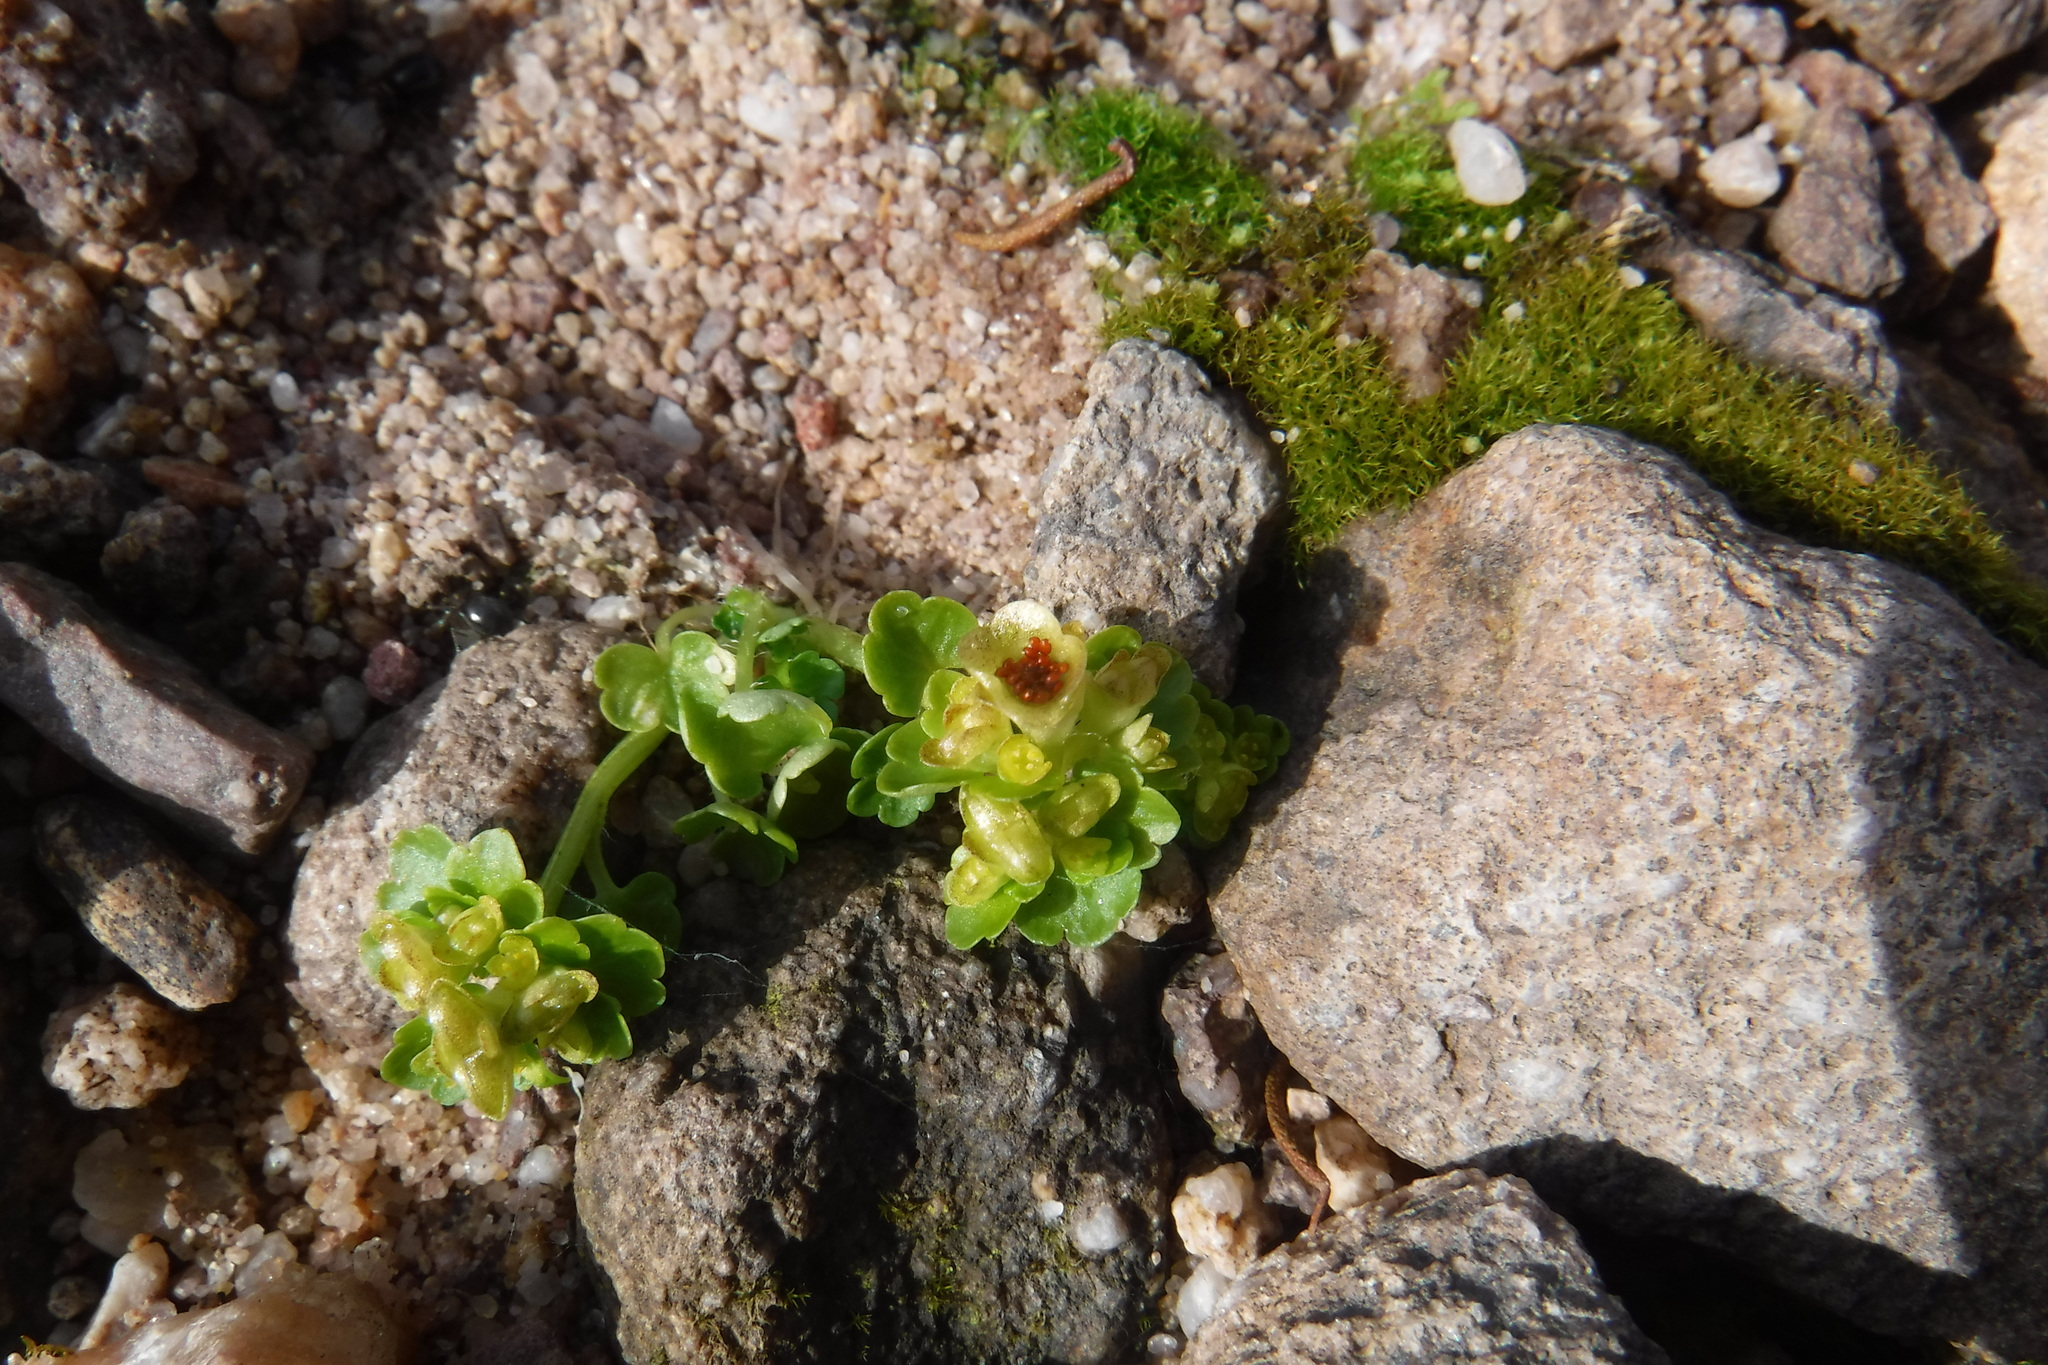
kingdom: Plantae
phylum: Tracheophyta
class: Magnoliopsida
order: Saxifragales
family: Saxifragaceae
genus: Chrysosplenium
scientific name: Chrysosplenium tetrandrum
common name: Green saxifrage
